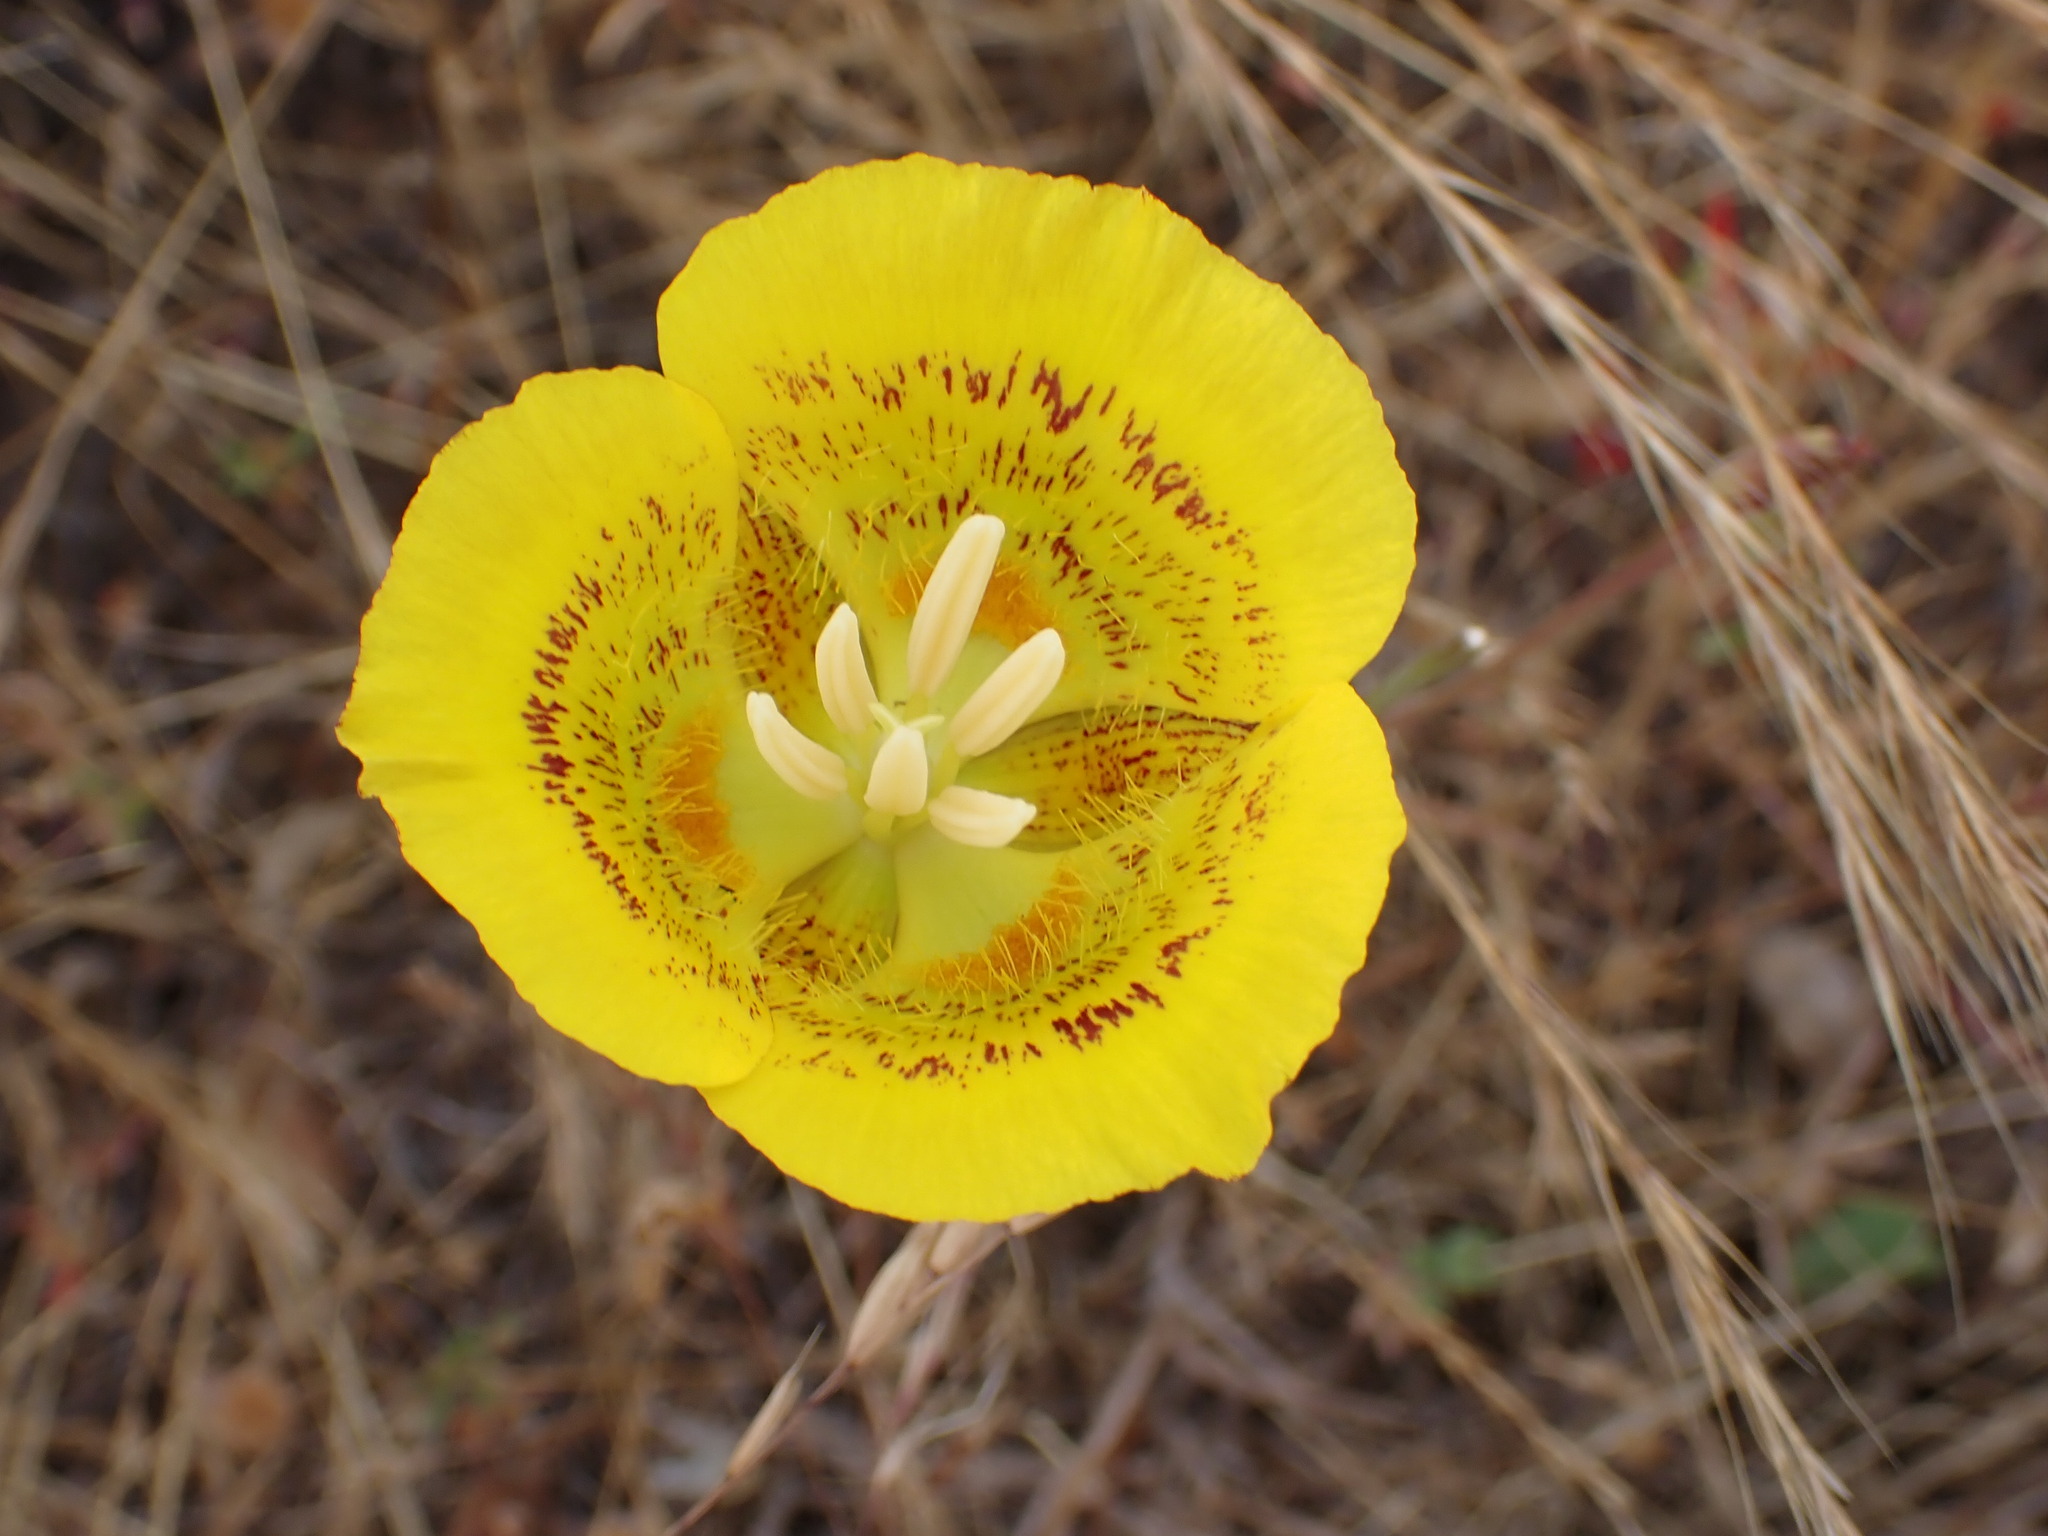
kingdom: Plantae
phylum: Tracheophyta
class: Liliopsida
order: Liliales
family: Liliaceae
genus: Calochortus
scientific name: Calochortus luteus
